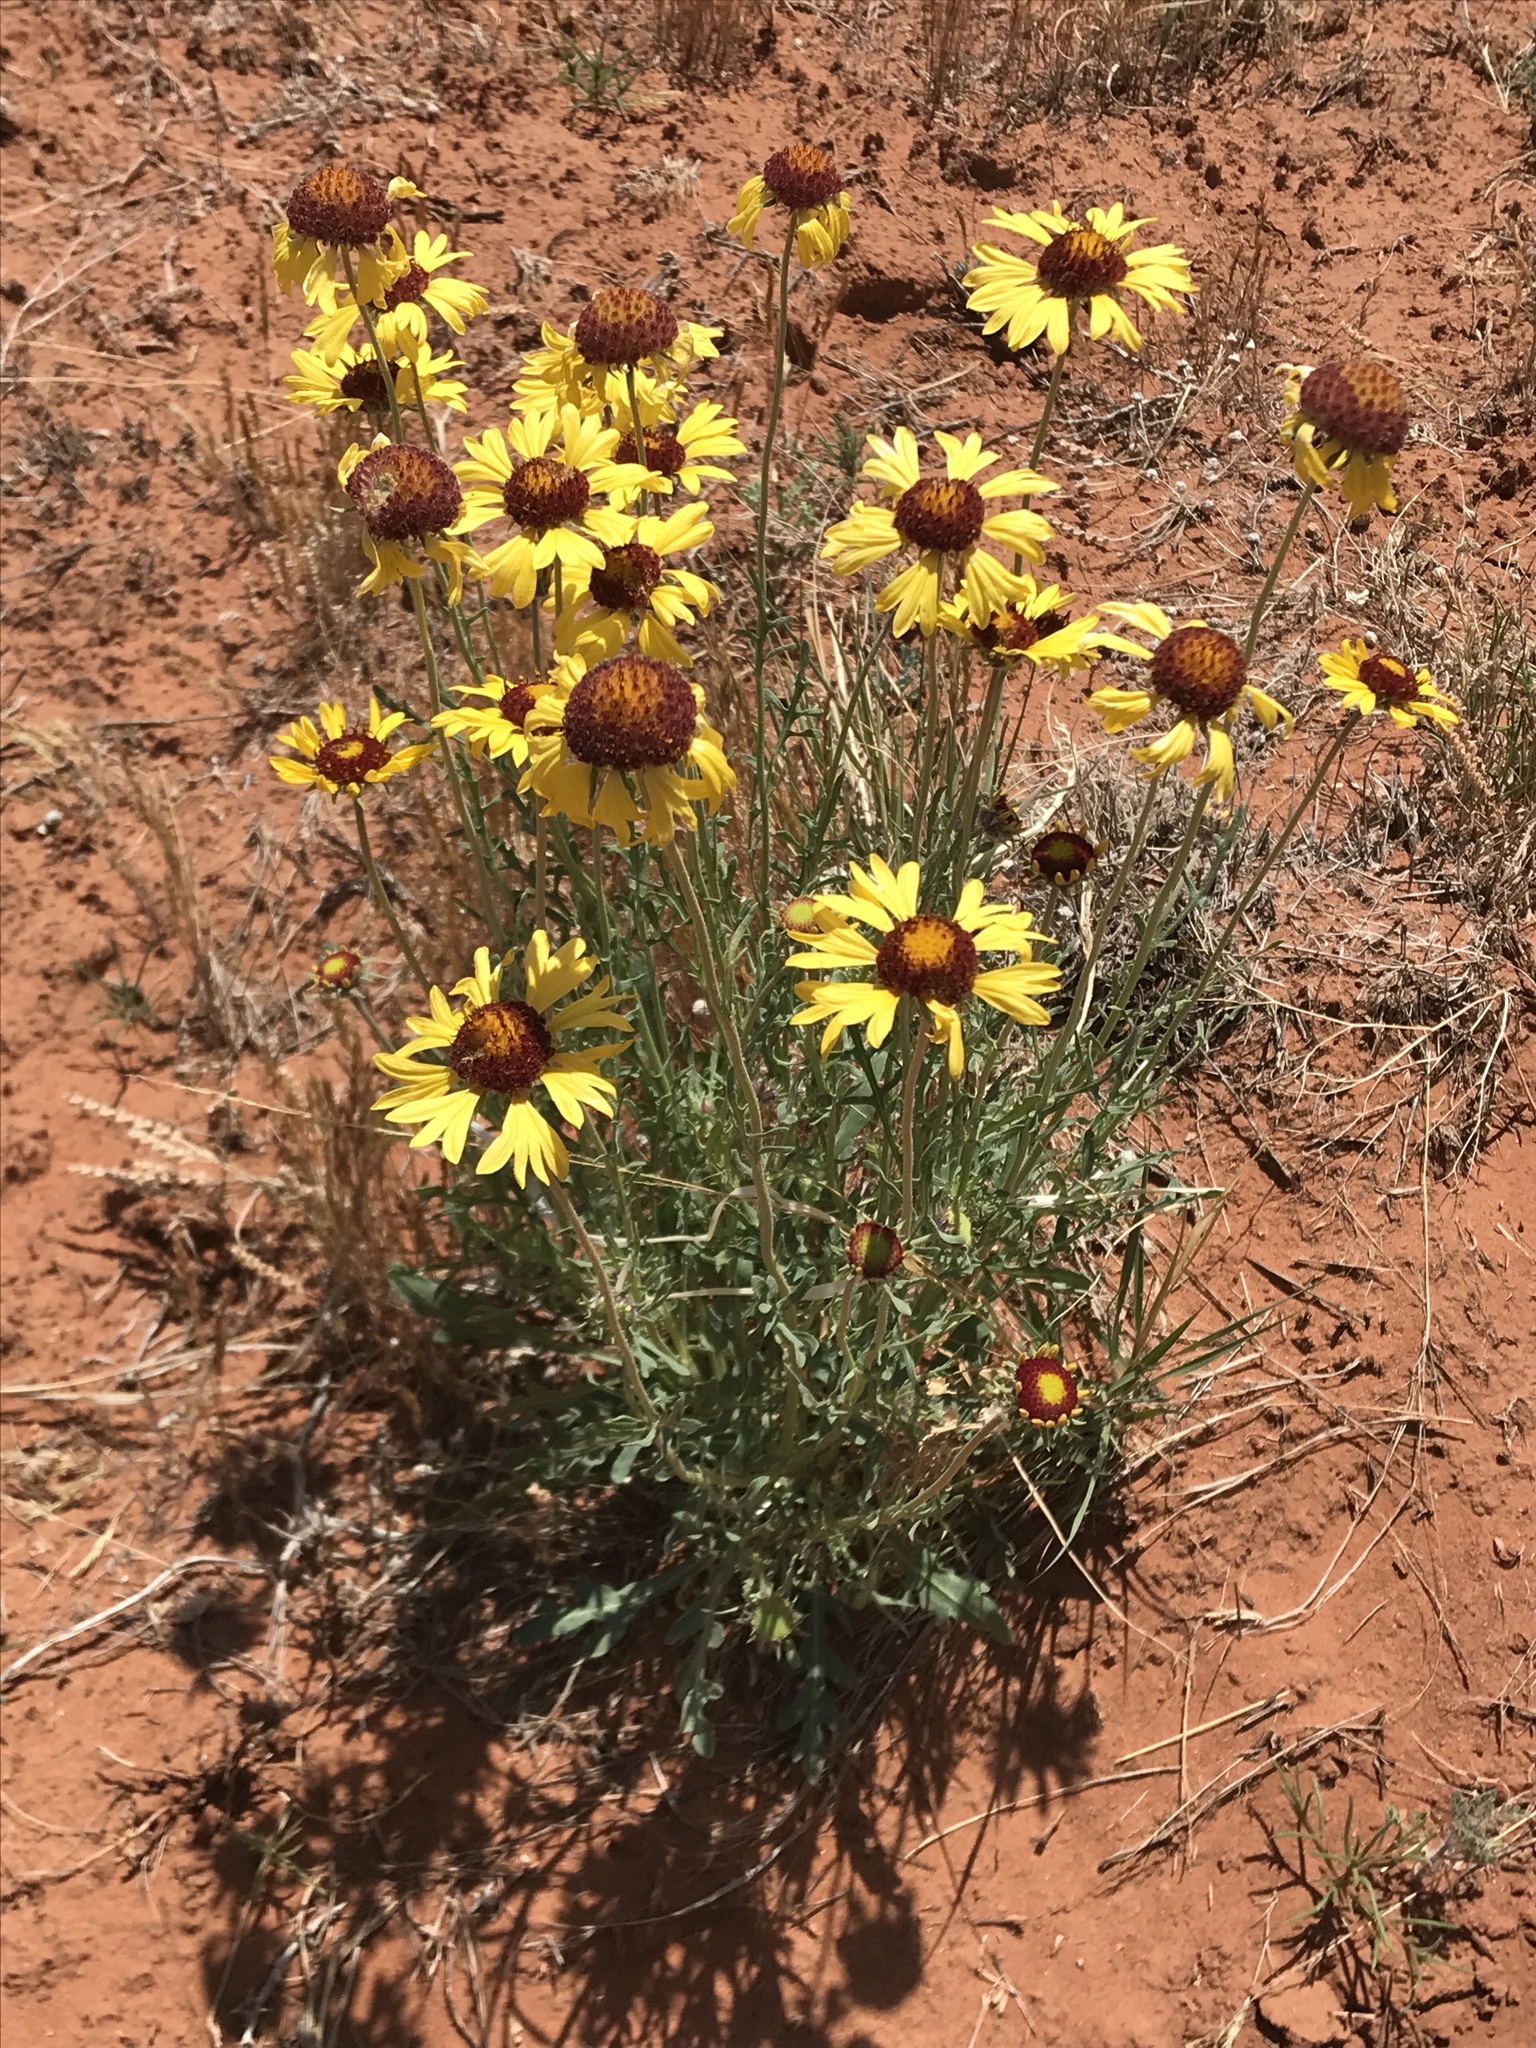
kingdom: Plantae
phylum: Tracheophyta
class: Magnoliopsida
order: Asterales
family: Asteraceae
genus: Gaillardia
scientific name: Gaillardia pinnatifida
